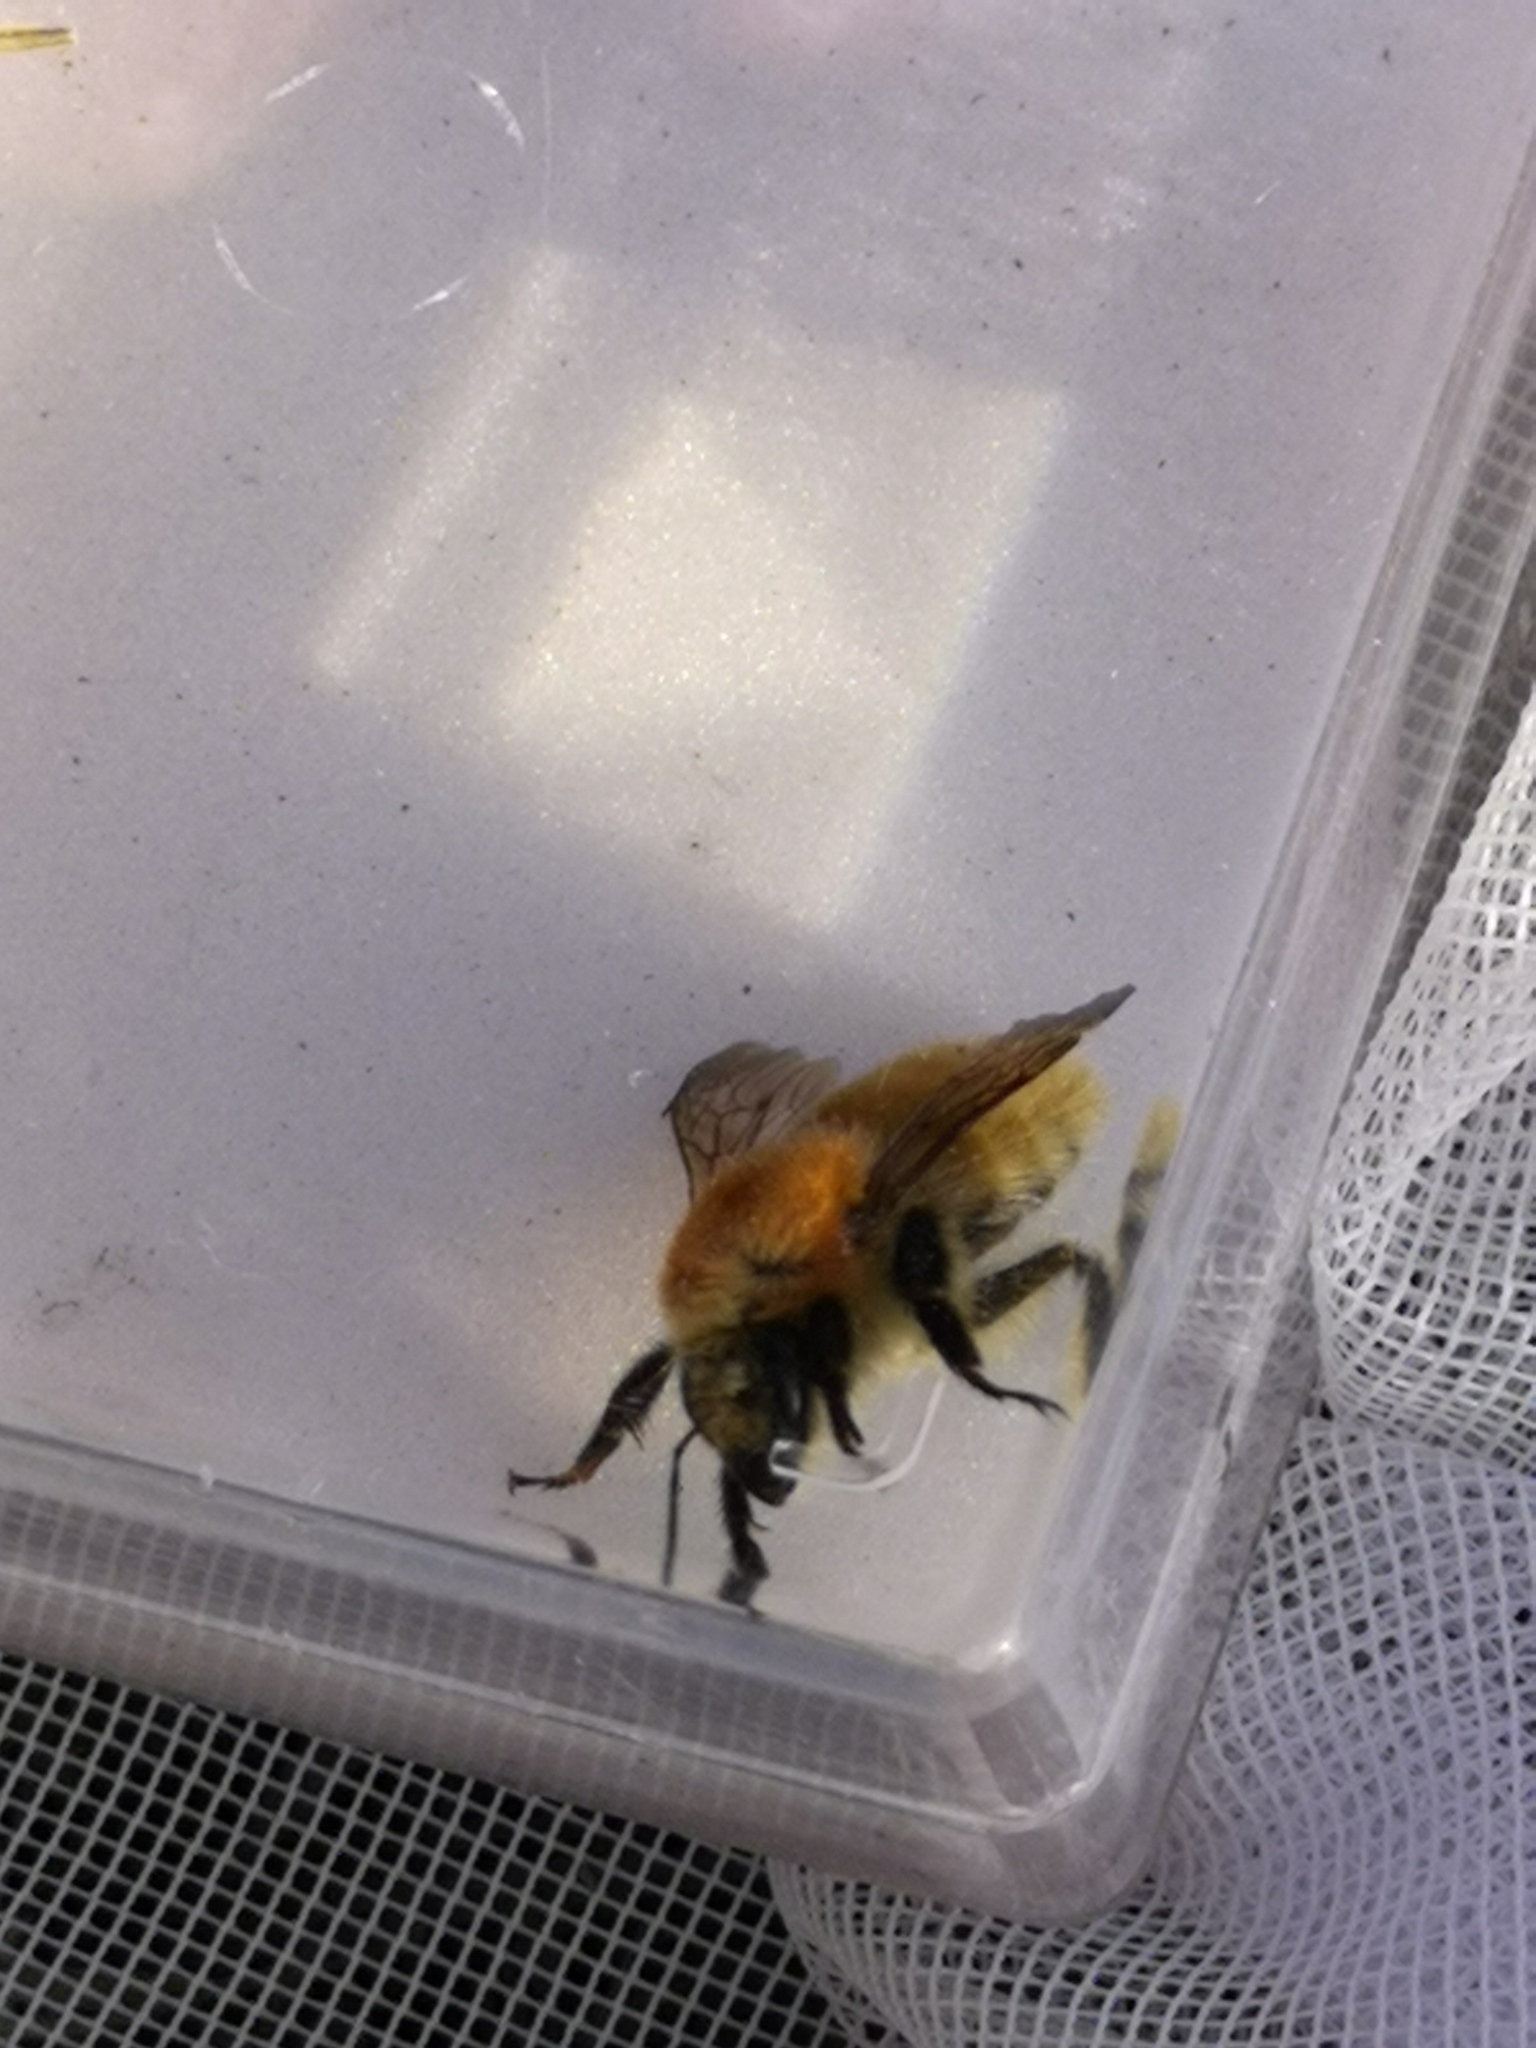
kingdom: Animalia
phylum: Arthropoda
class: Insecta
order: Hymenoptera
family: Apidae
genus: Bombus
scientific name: Bombus muscorum
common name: Moss carder-bee
